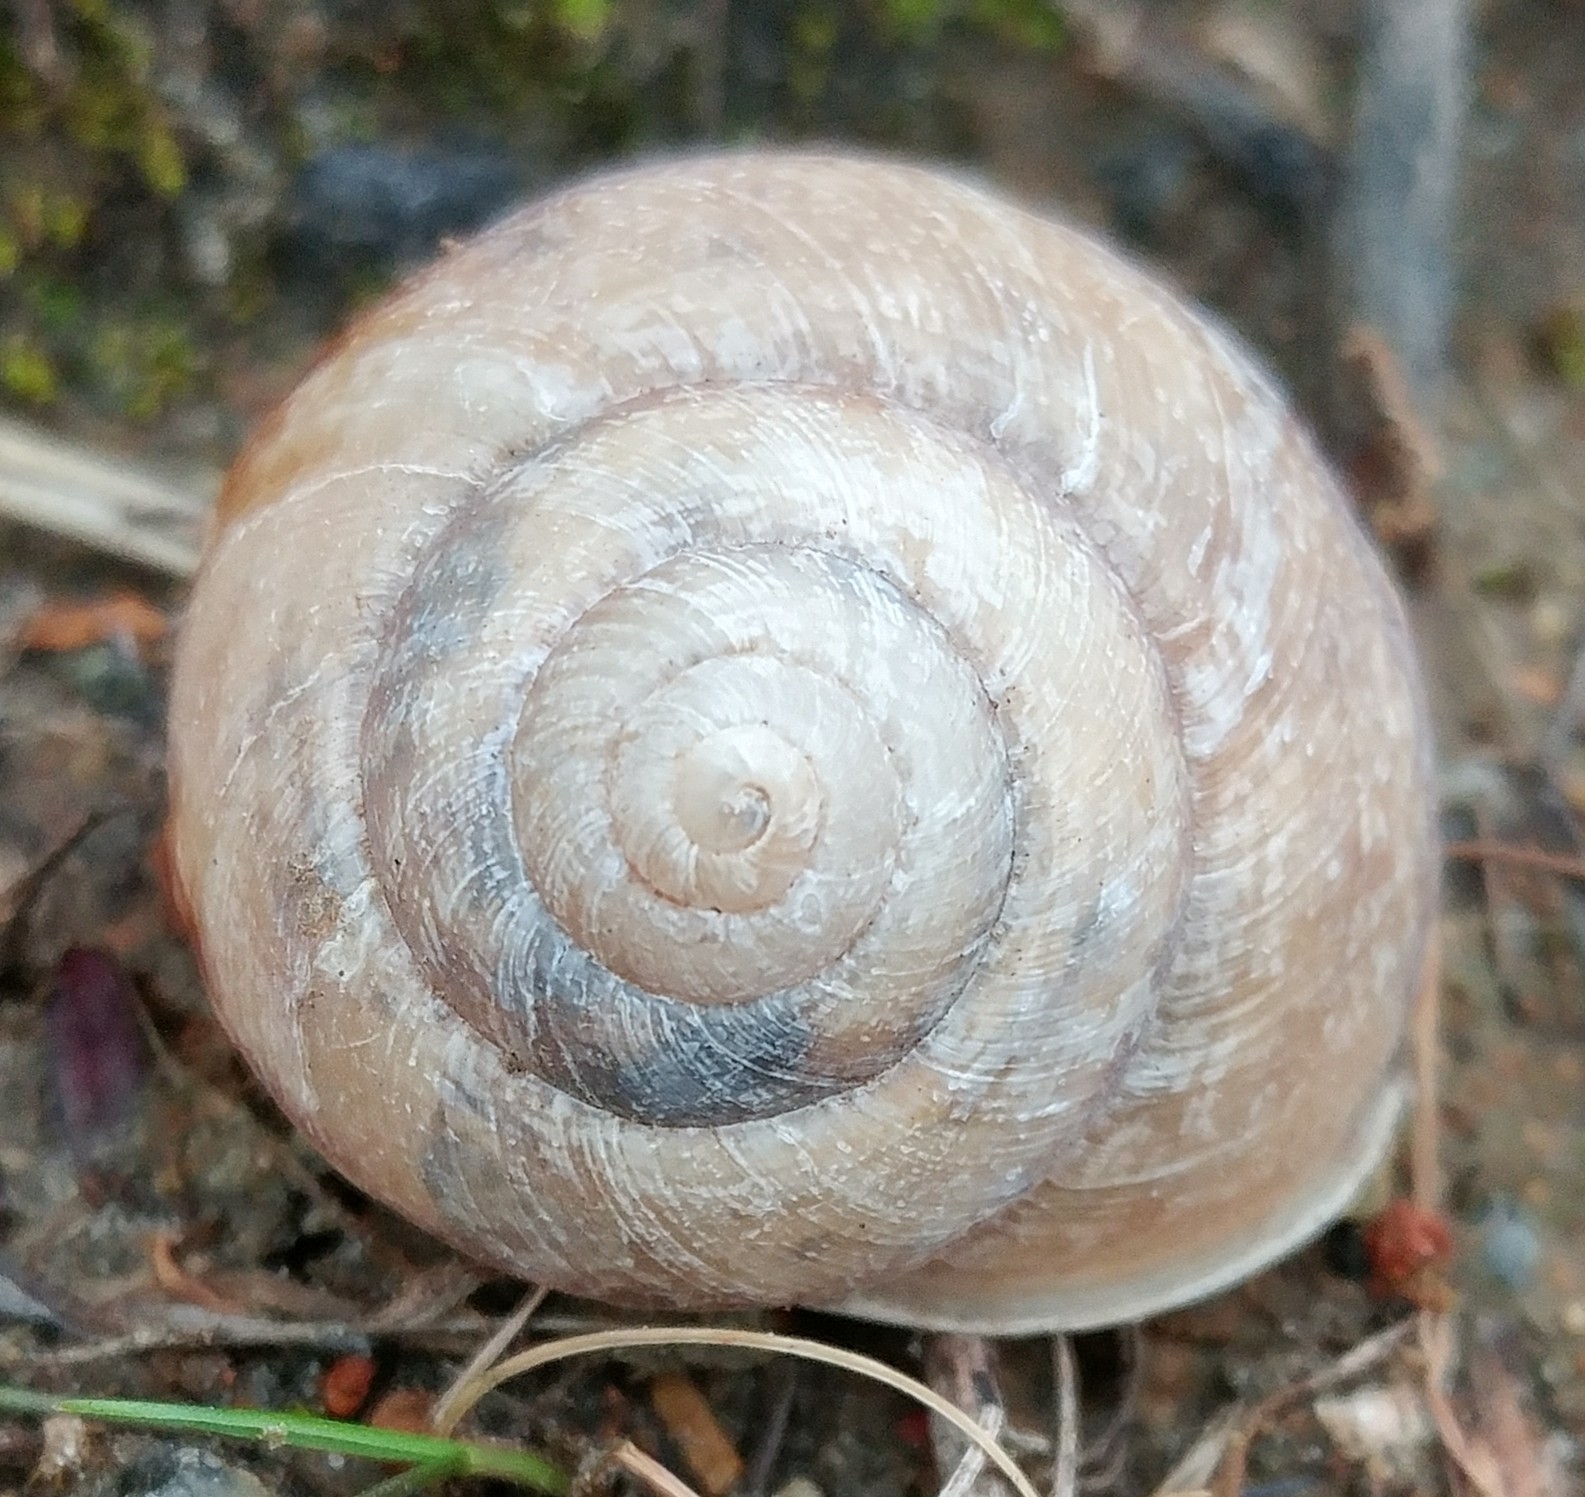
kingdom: Animalia
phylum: Mollusca
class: Gastropoda
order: Stylommatophora
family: Xanthonychidae
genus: Xerarionta
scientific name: Xerarionta stearnsiana
